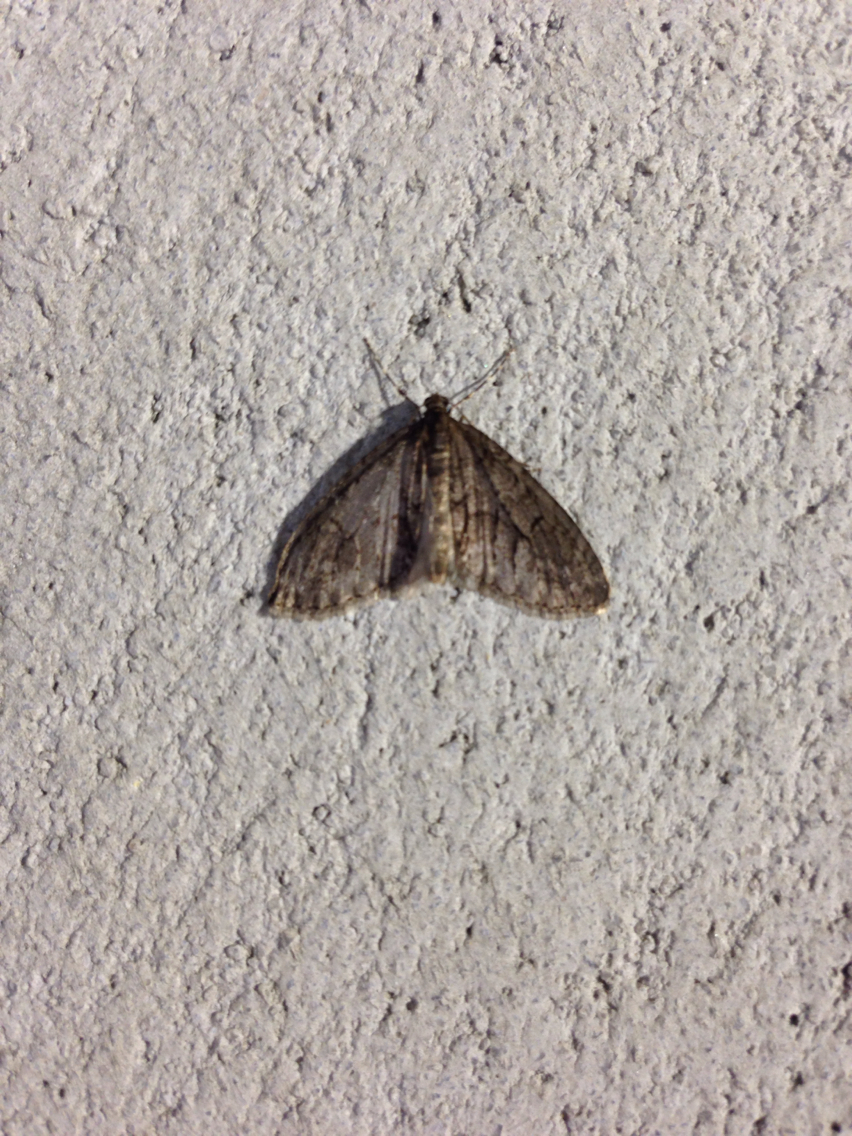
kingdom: Animalia
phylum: Arthropoda
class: Insecta
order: Lepidoptera
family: Geometridae
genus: Cladara
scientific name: Cladara limitaria
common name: Mottled gray carpet
